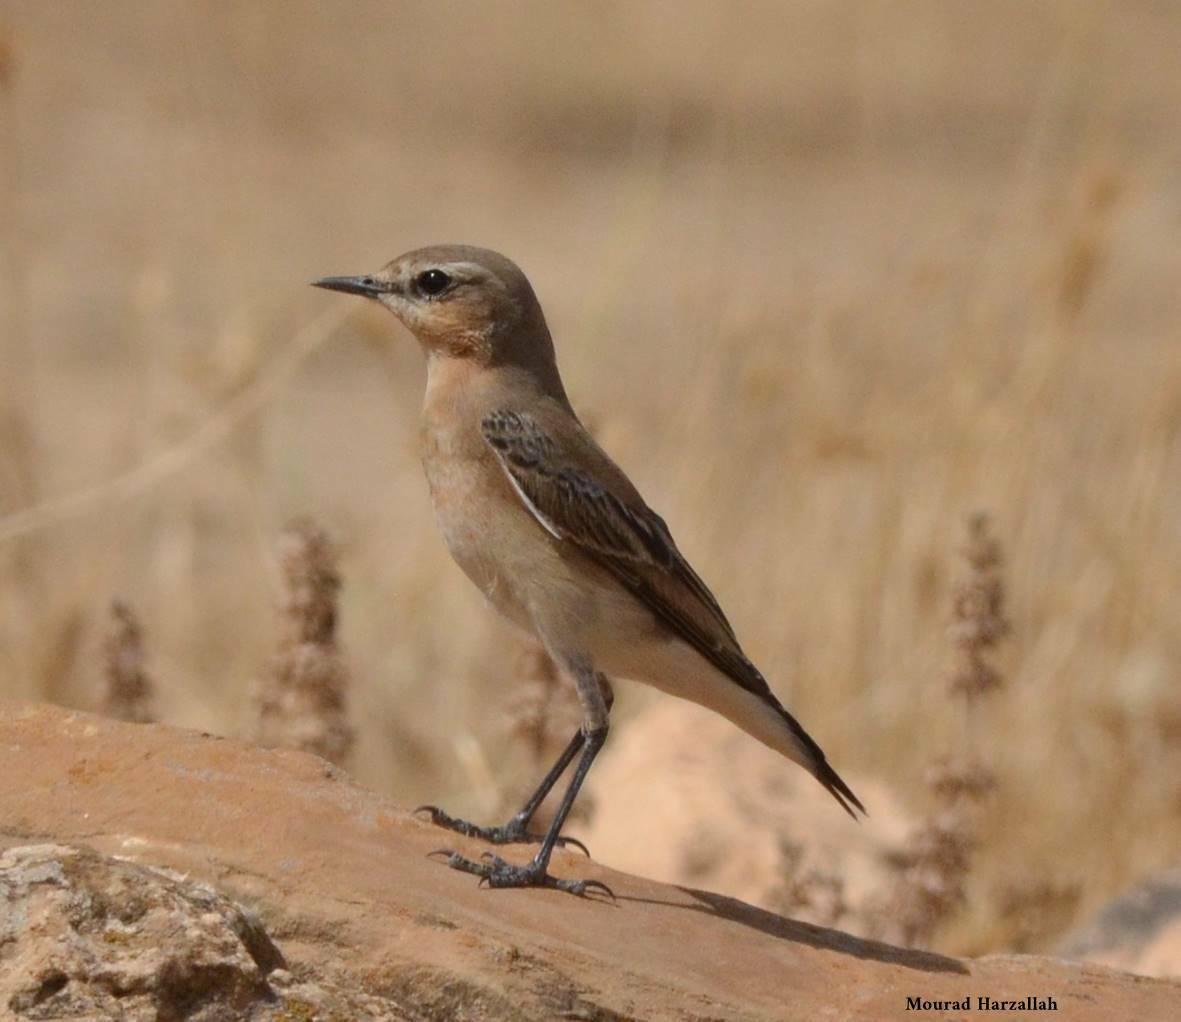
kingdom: Animalia
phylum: Chordata
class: Aves
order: Passeriformes
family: Muscicapidae
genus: Oenanthe
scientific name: Oenanthe oenanthe
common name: Northern wheatear
